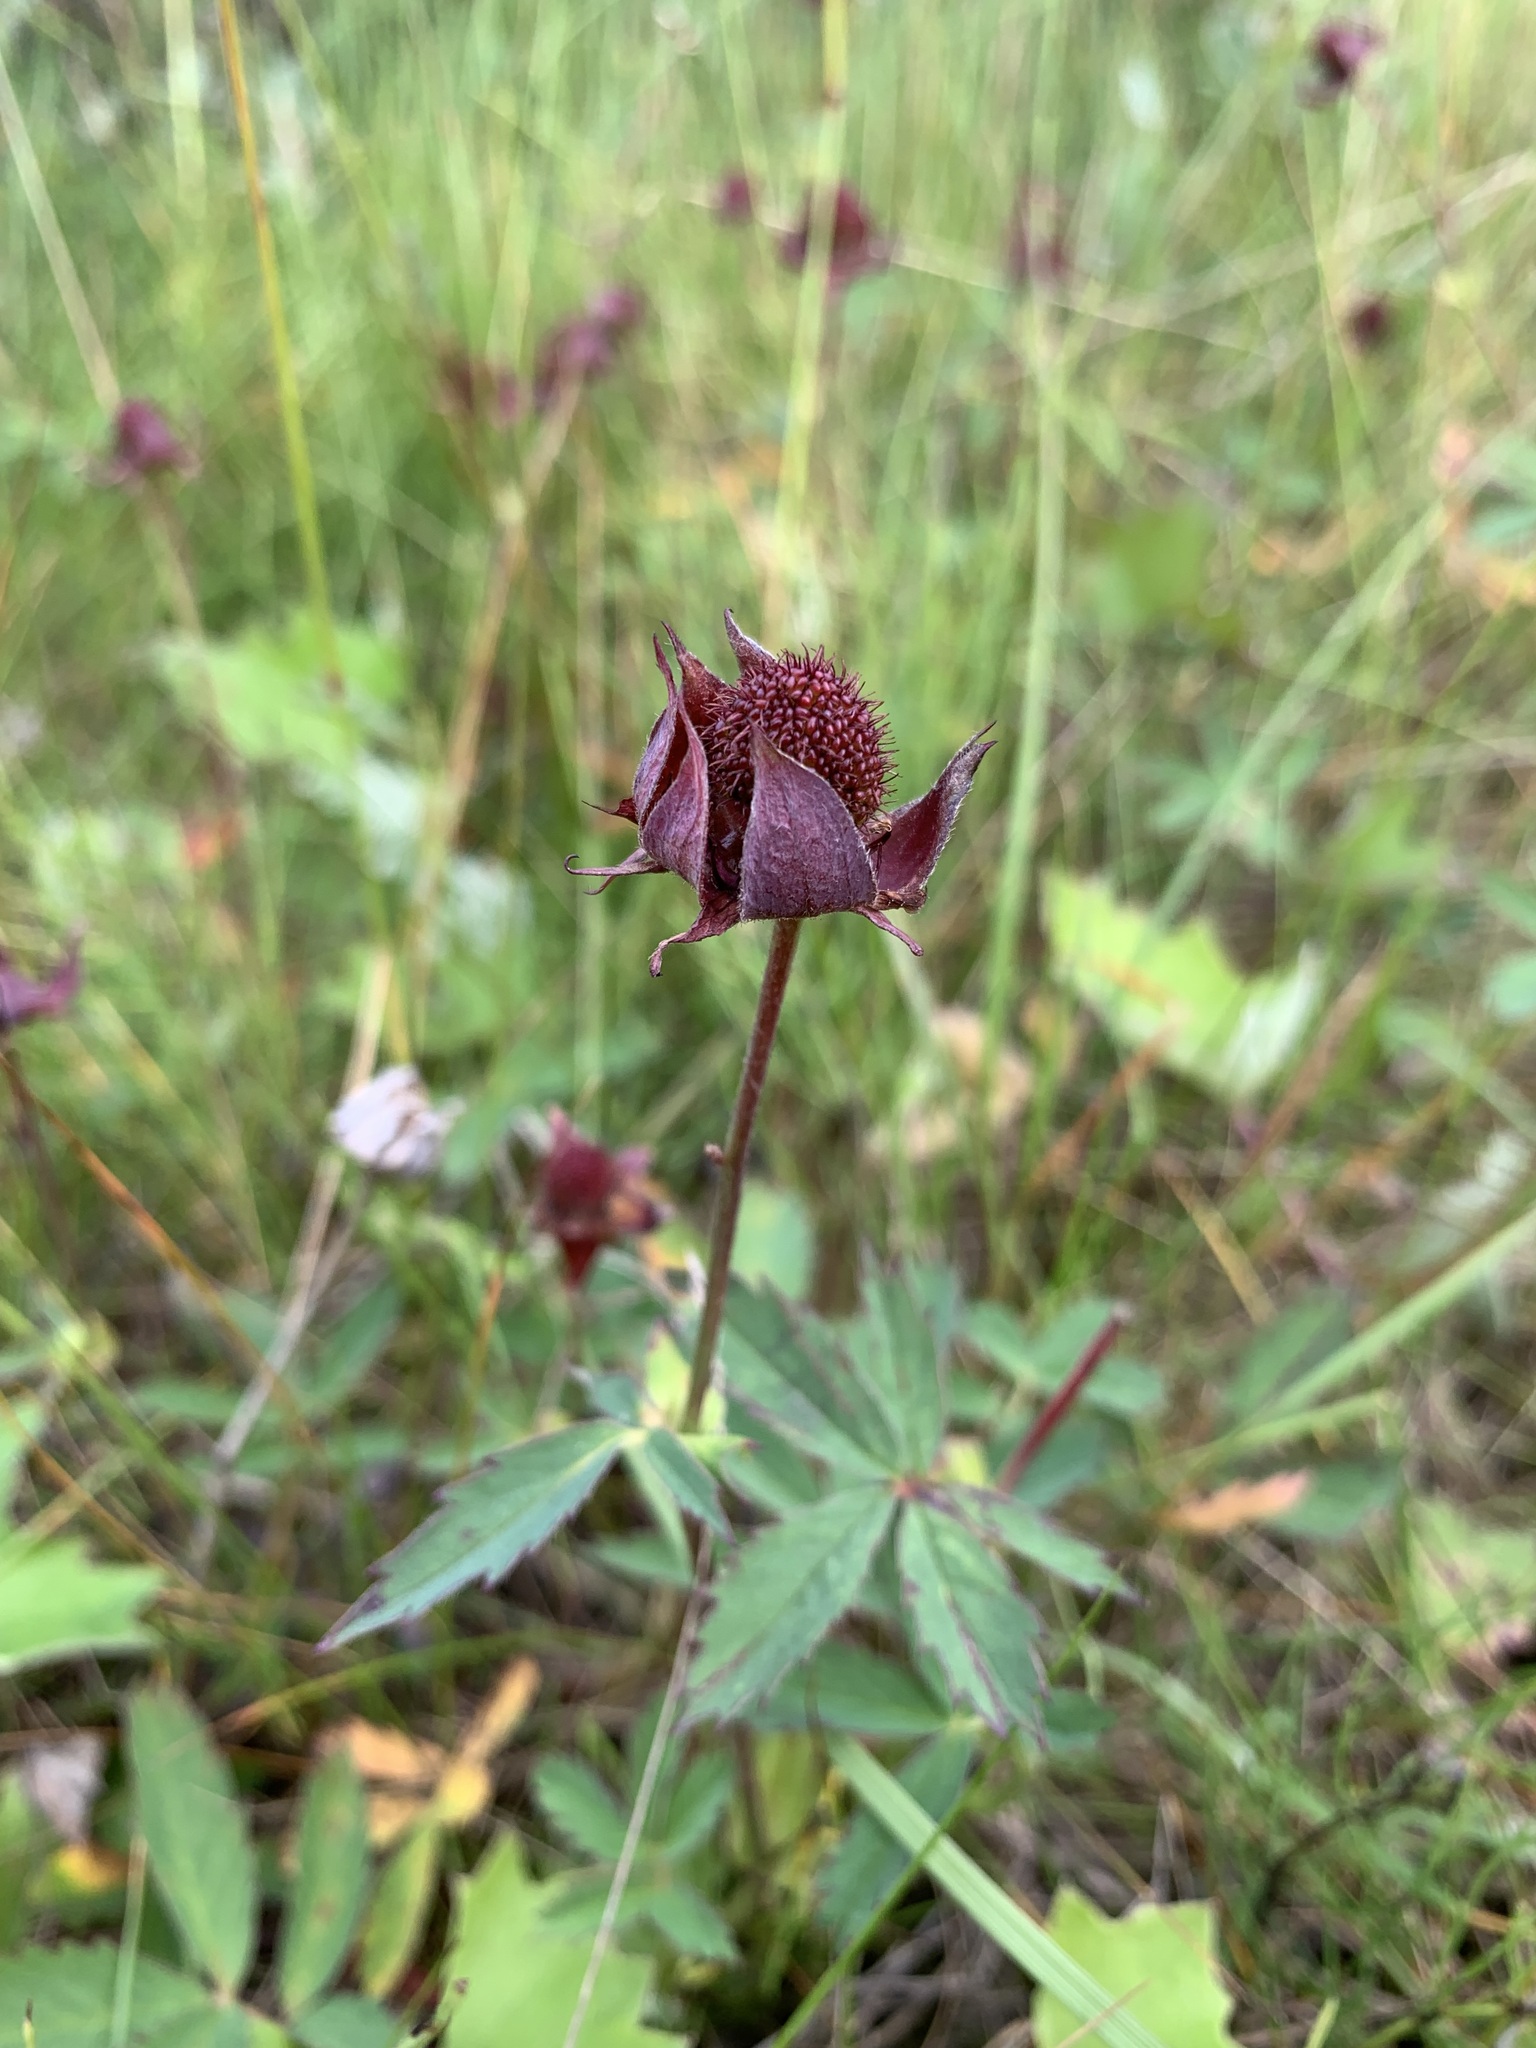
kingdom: Plantae
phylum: Tracheophyta
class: Magnoliopsida
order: Rosales
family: Rosaceae
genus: Comarum
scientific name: Comarum palustre
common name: Marsh cinquefoil
